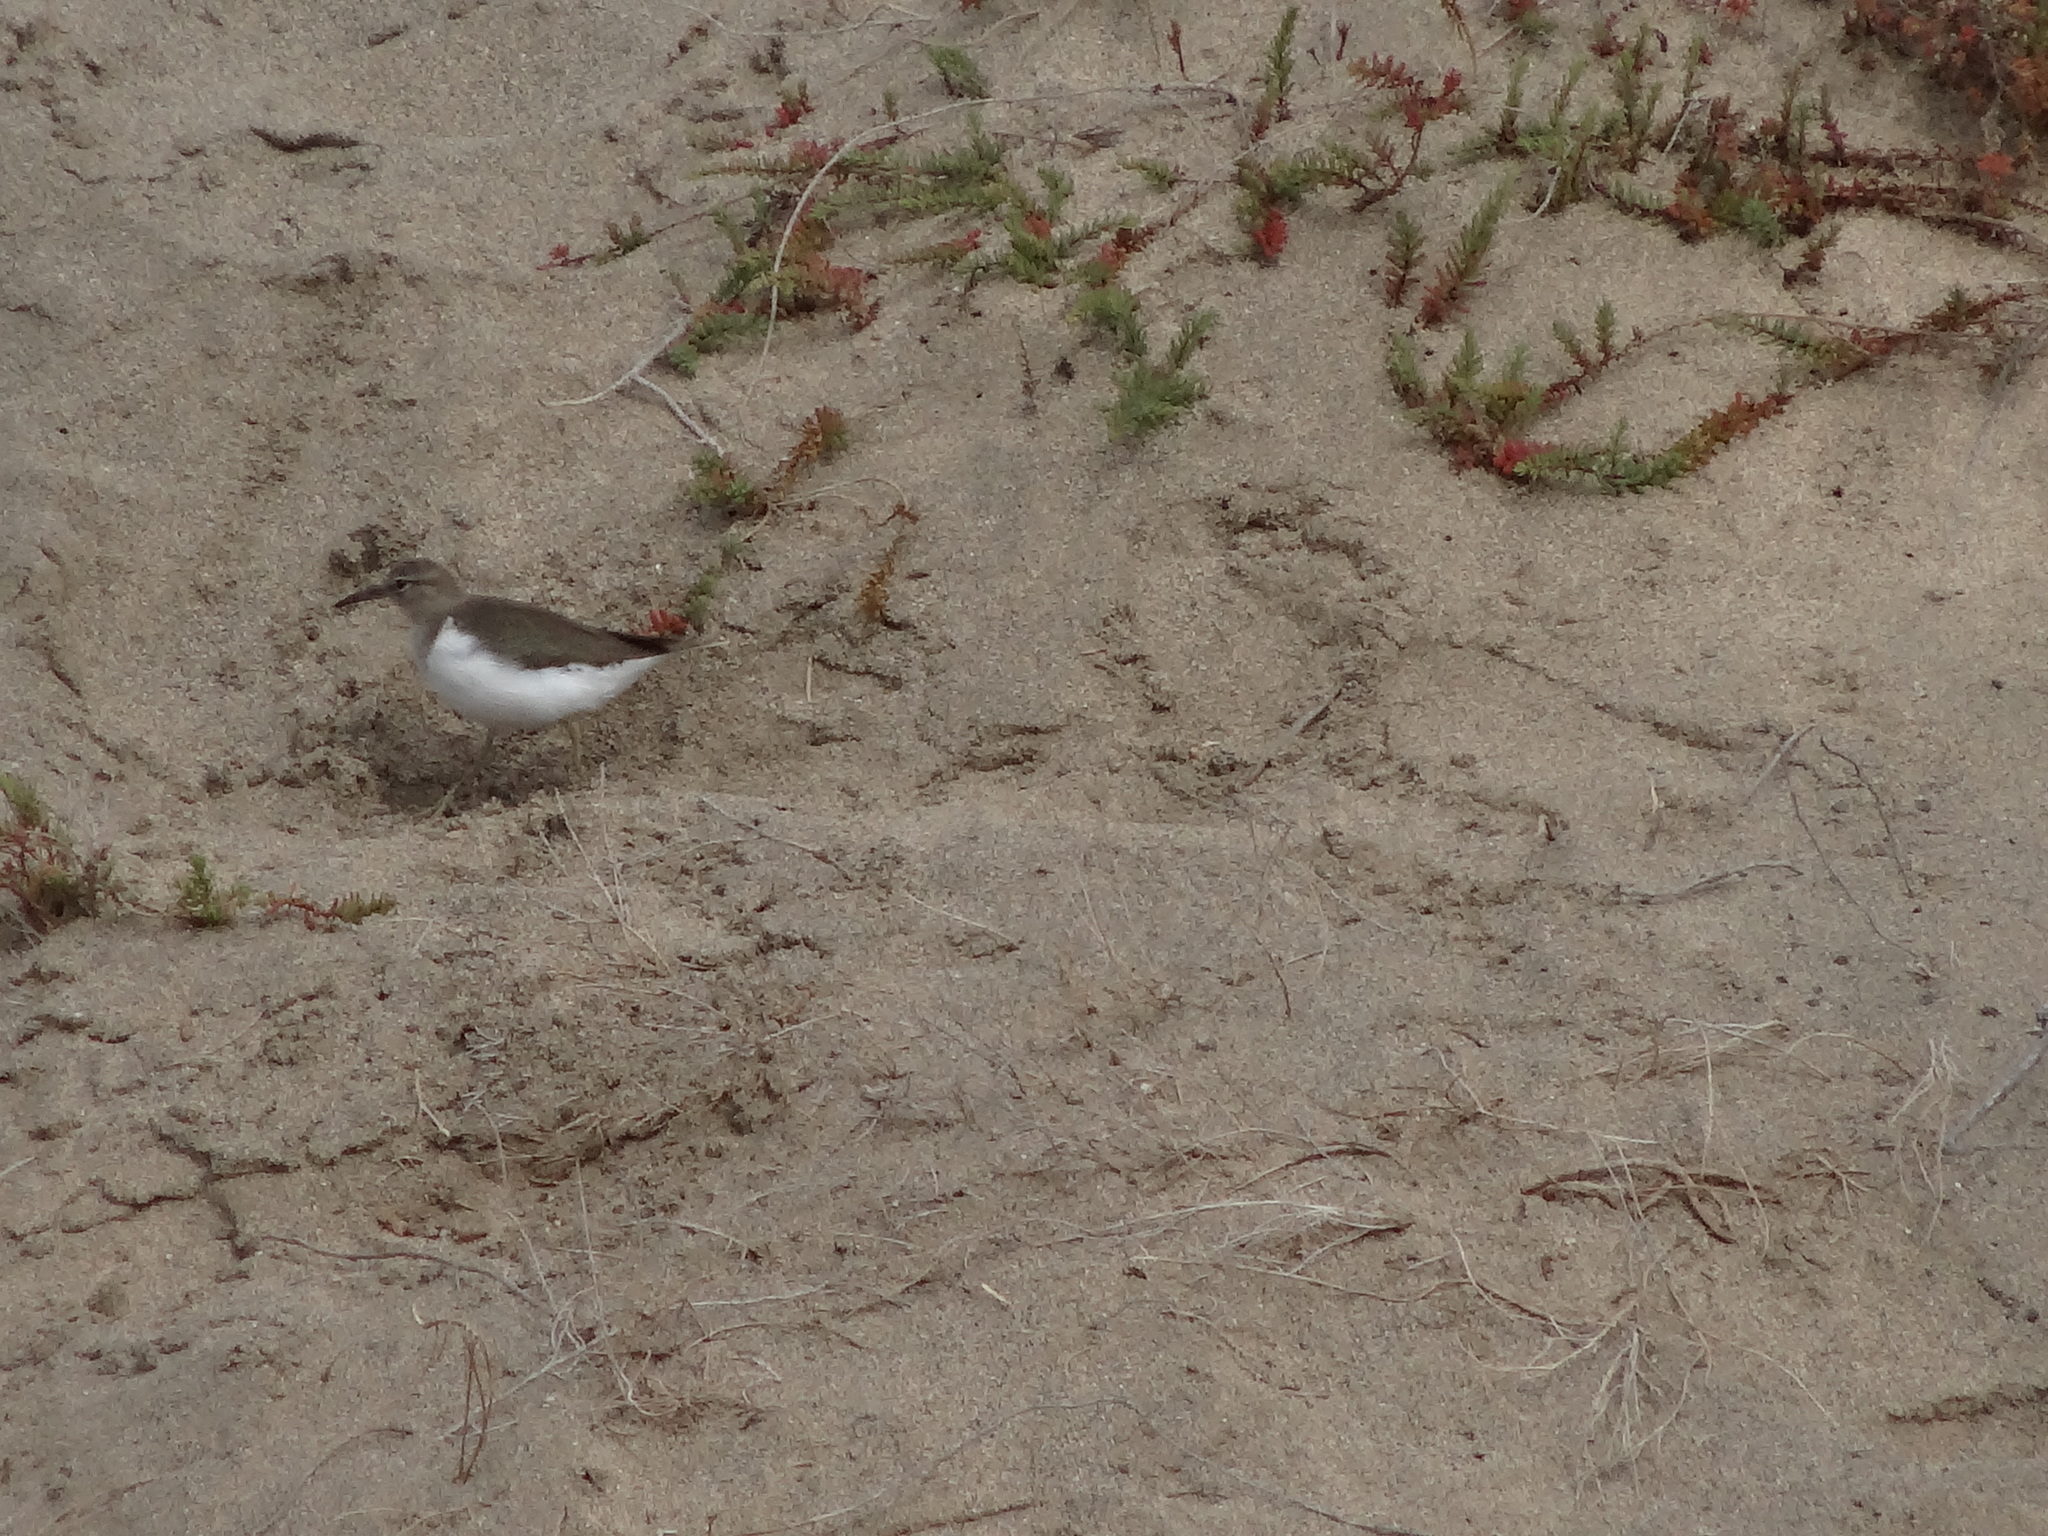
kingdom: Animalia
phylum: Chordata
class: Aves
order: Charadriiformes
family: Scolopacidae
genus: Actitis
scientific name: Actitis hypoleucos
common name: Common sandpiper
